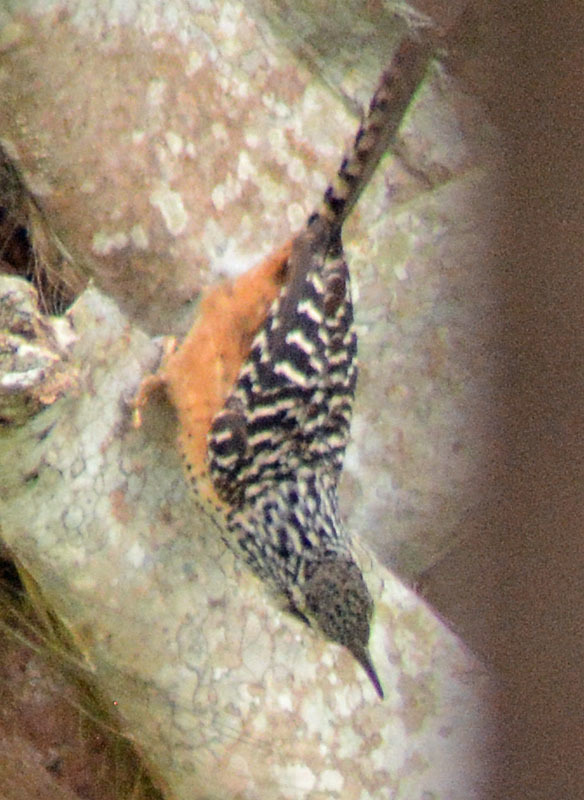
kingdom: Animalia
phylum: Chordata
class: Aves
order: Passeriformes
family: Troglodytidae
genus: Campylorhynchus
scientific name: Campylorhynchus zonatus
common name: Band-backed wren
